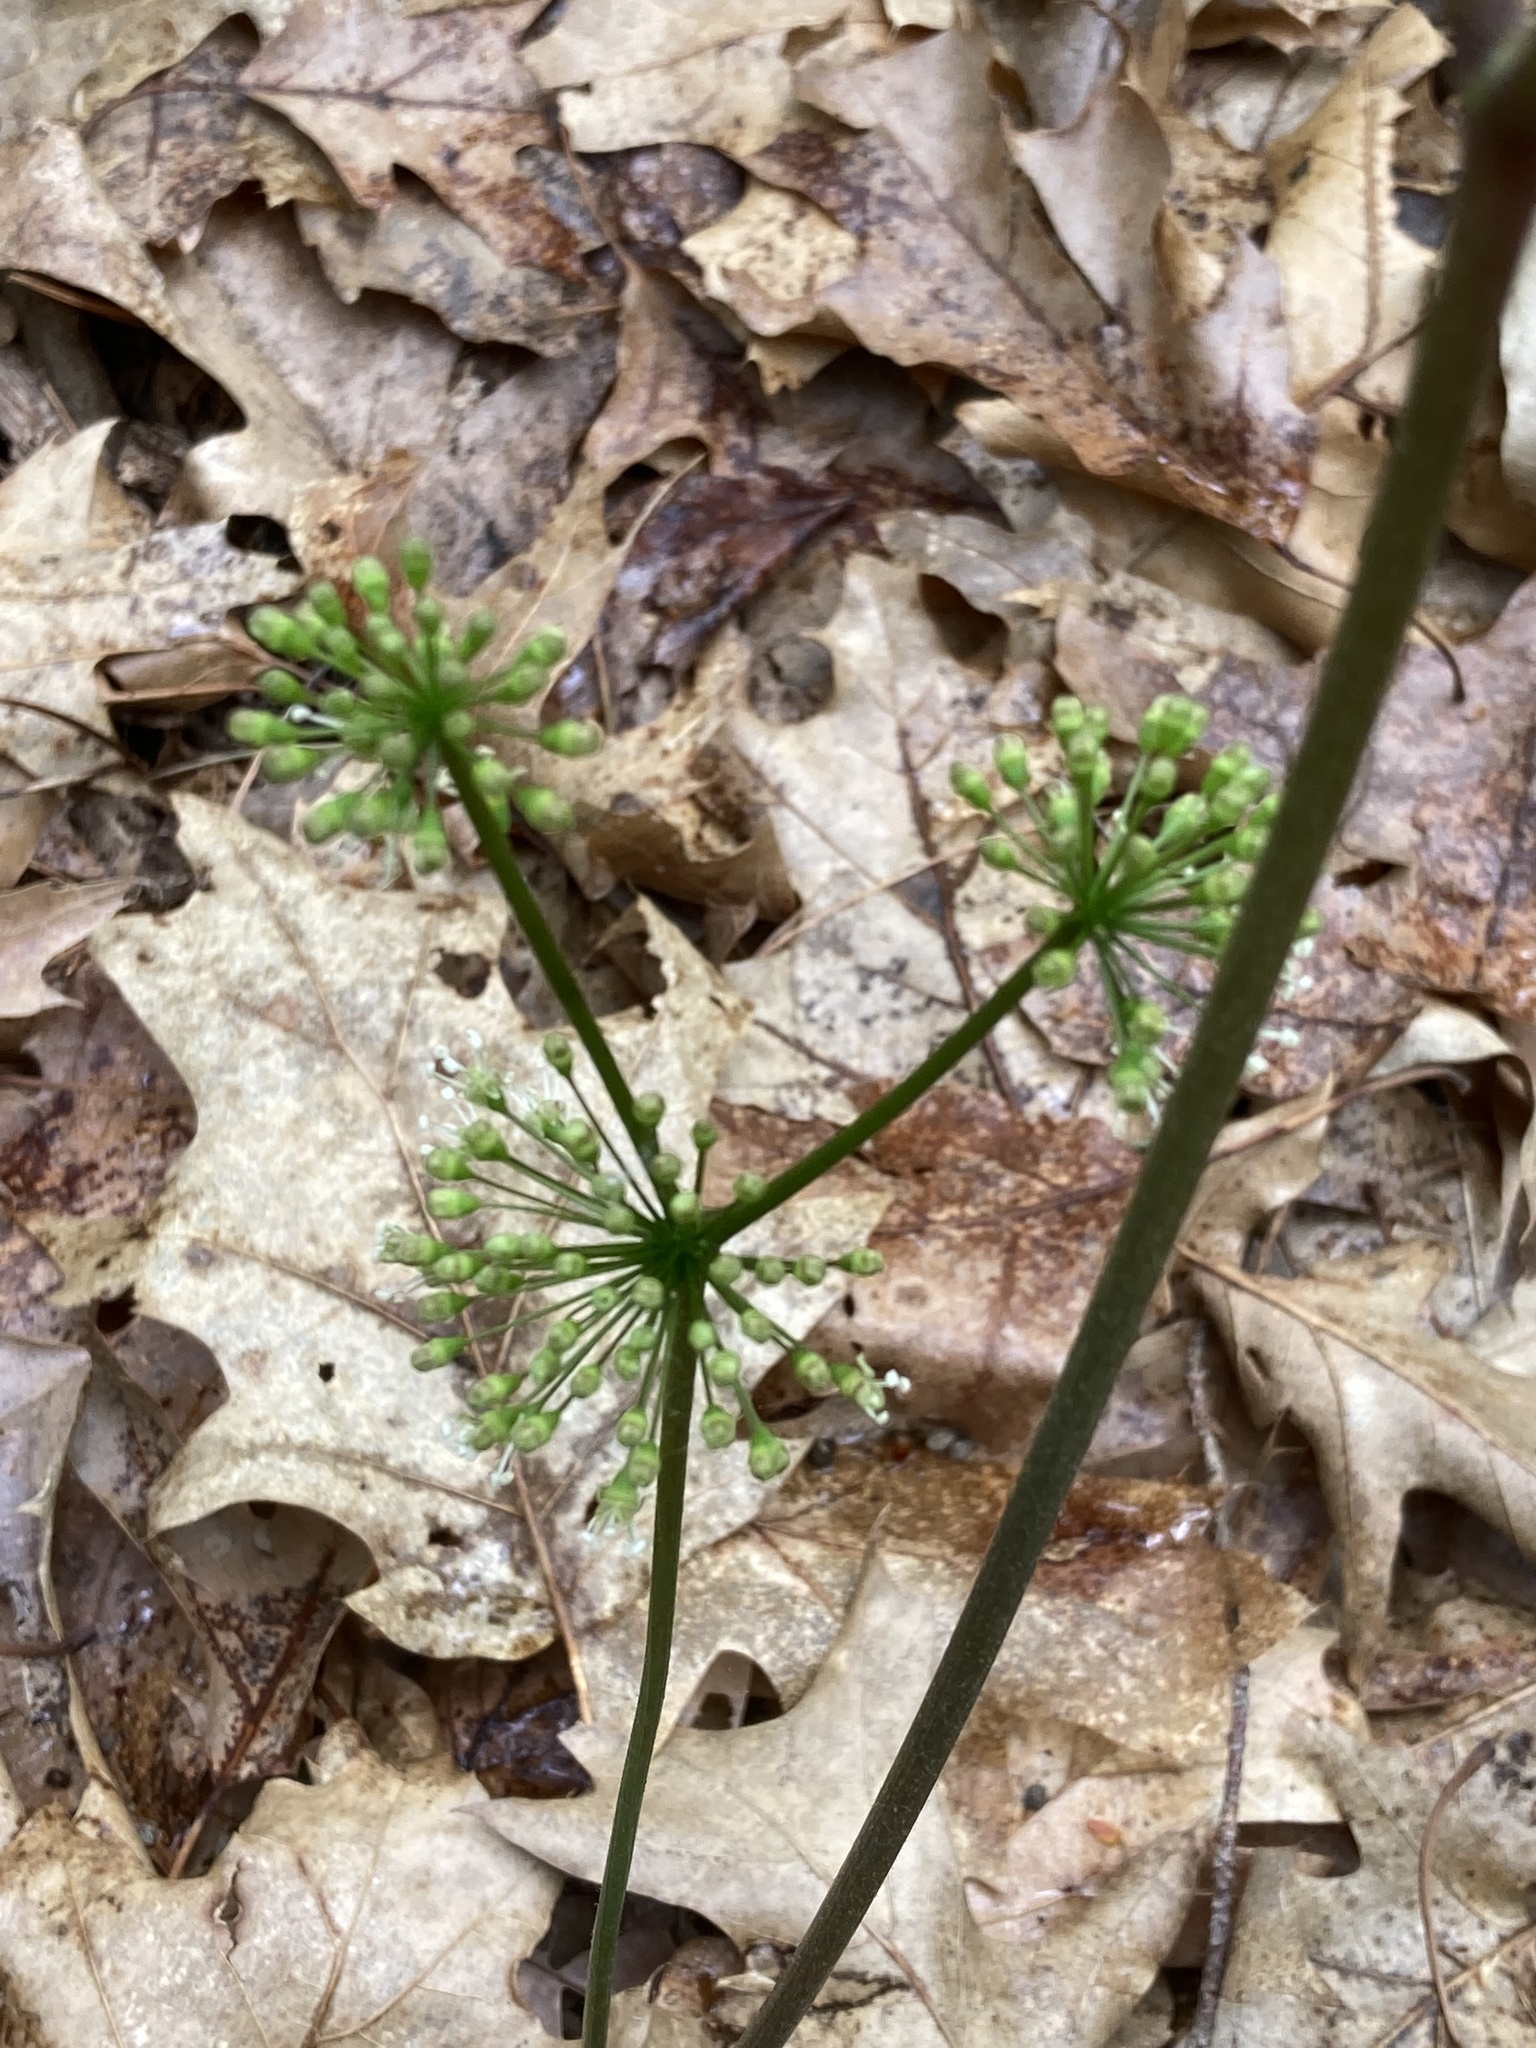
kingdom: Plantae
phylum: Tracheophyta
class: Magnoliopsida
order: Apiales
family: Araliaceae
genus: Aralia
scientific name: Aralia nudicaulis
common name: Wild sarsaparilla
